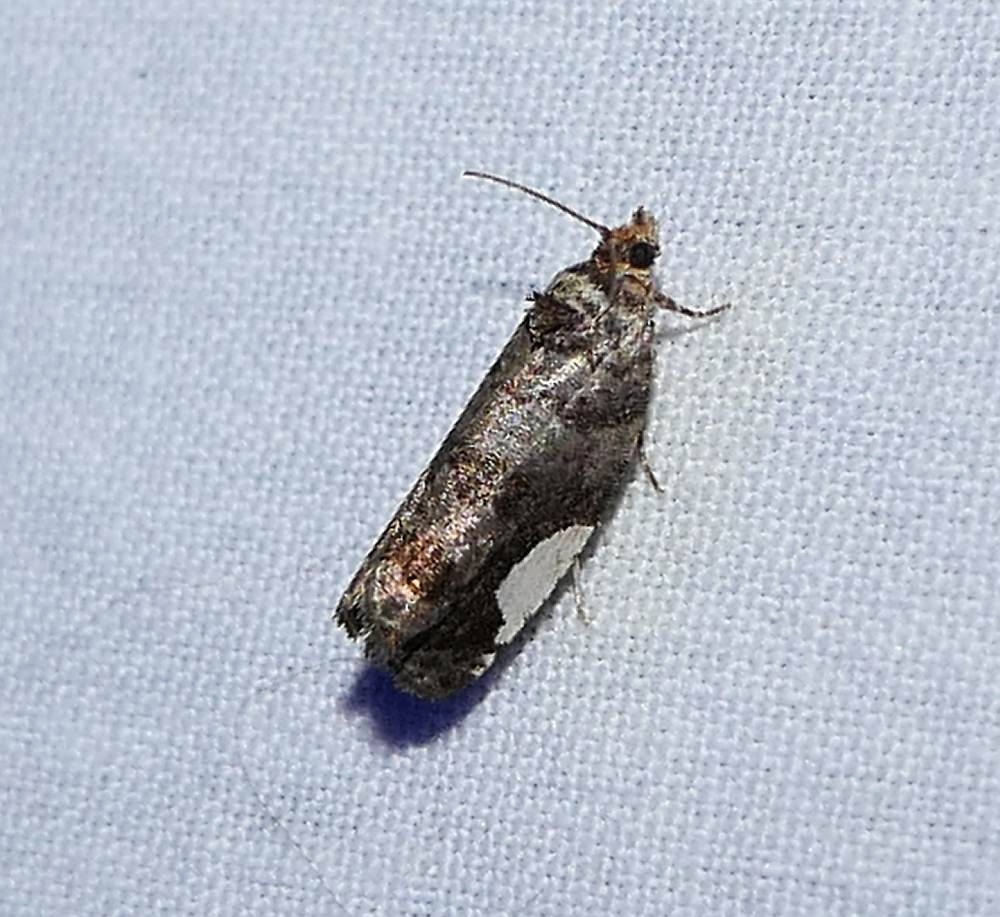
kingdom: Animalia
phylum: Arthropoda
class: Insecta
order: Lepidoptera
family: Tortricidae
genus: Hedya
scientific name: Hedya chionosema
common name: White-spotted hedya moth
